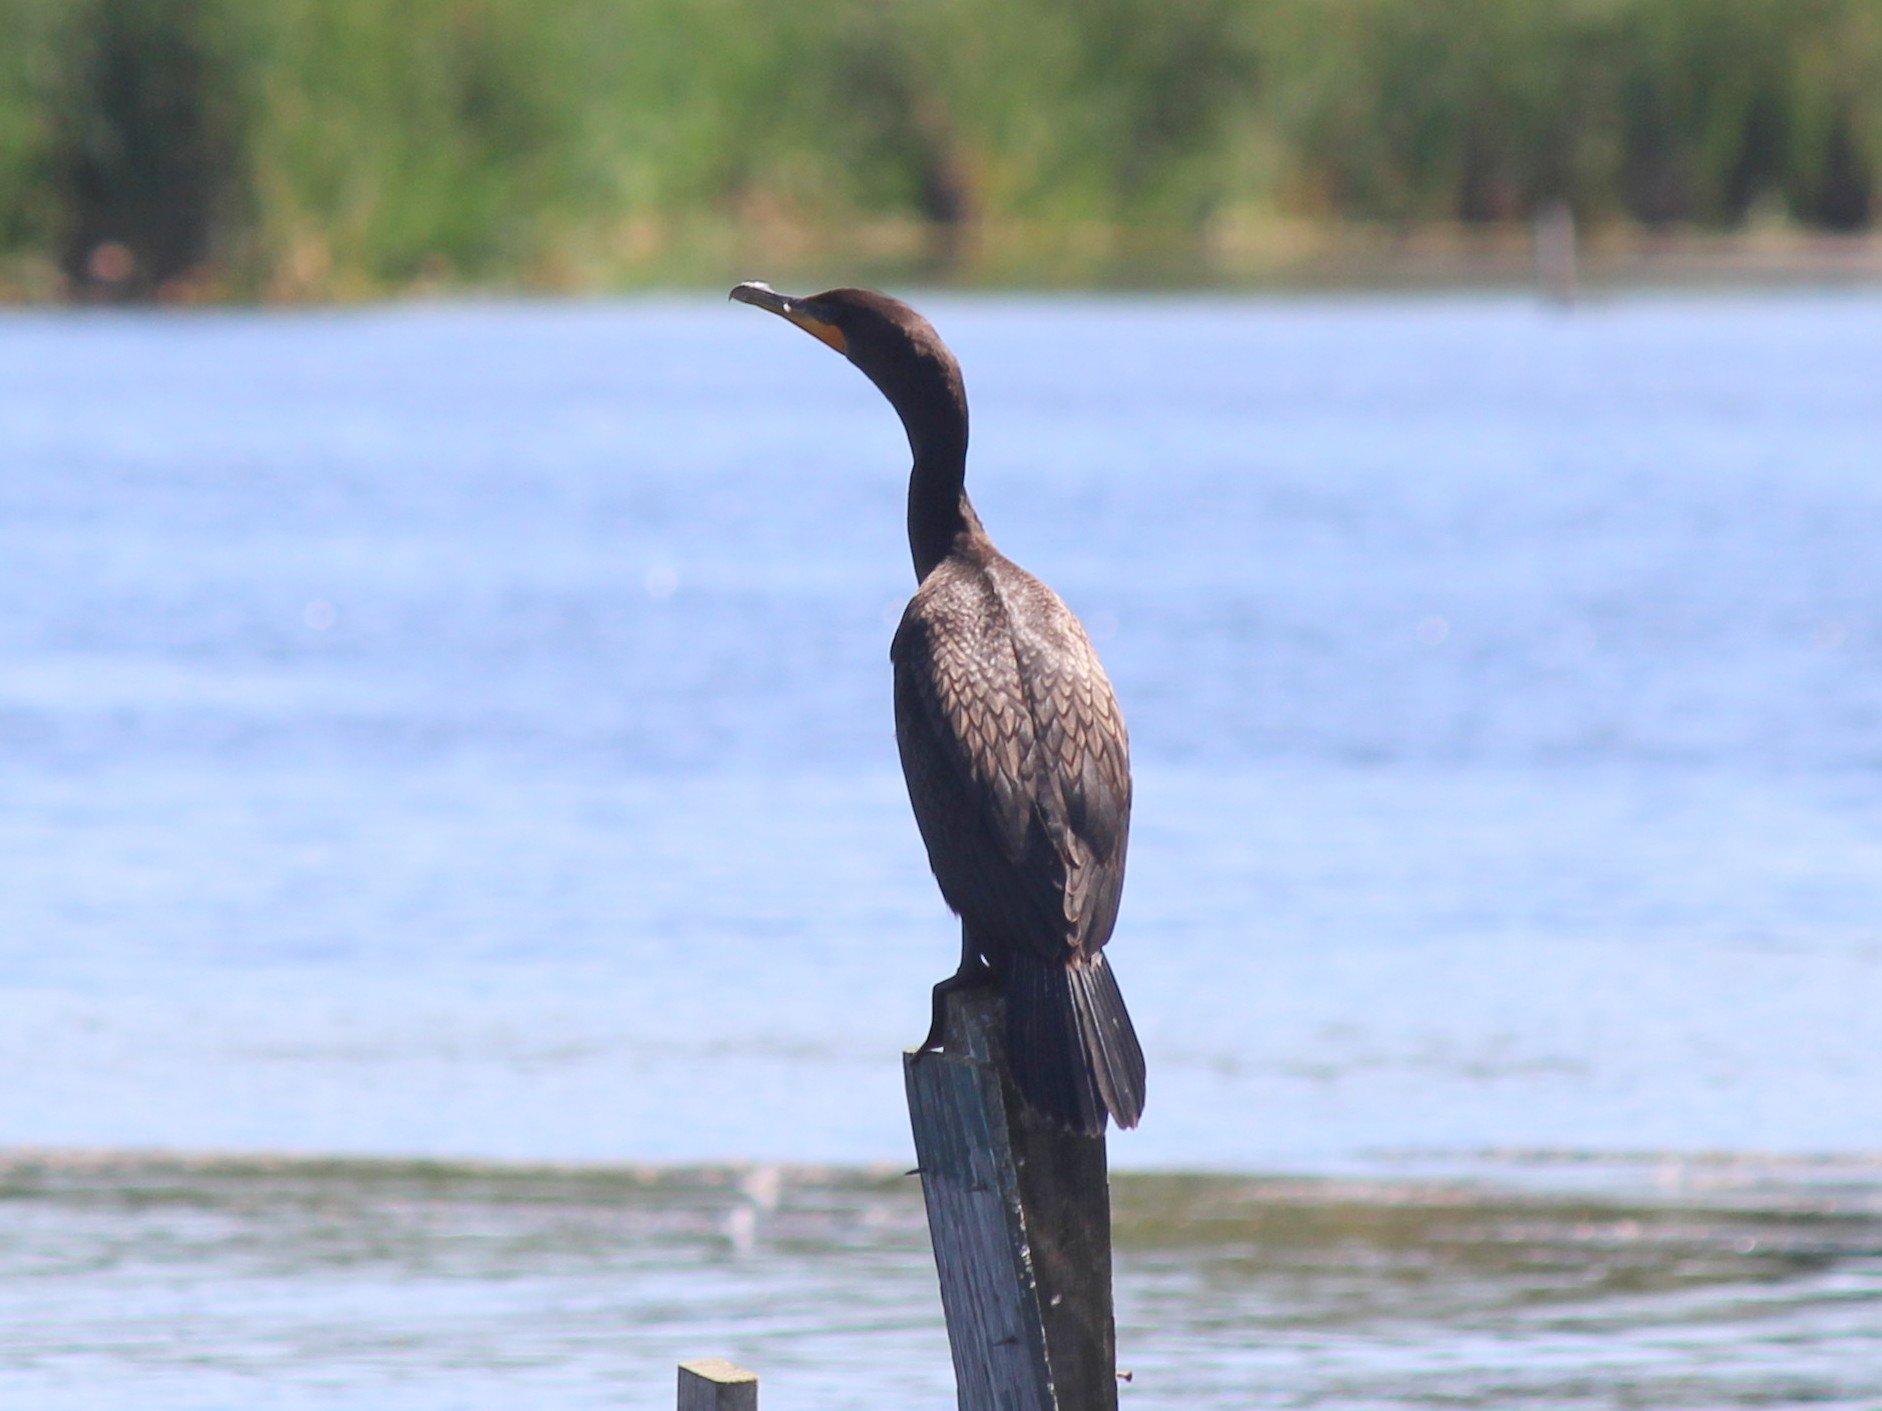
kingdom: Animalia
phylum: Chordata
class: Aves
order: Suliformes
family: Phalacrocoracidae
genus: Phalacrocorax
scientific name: Phalacrocorax auritus
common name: Double-crested cormorant
